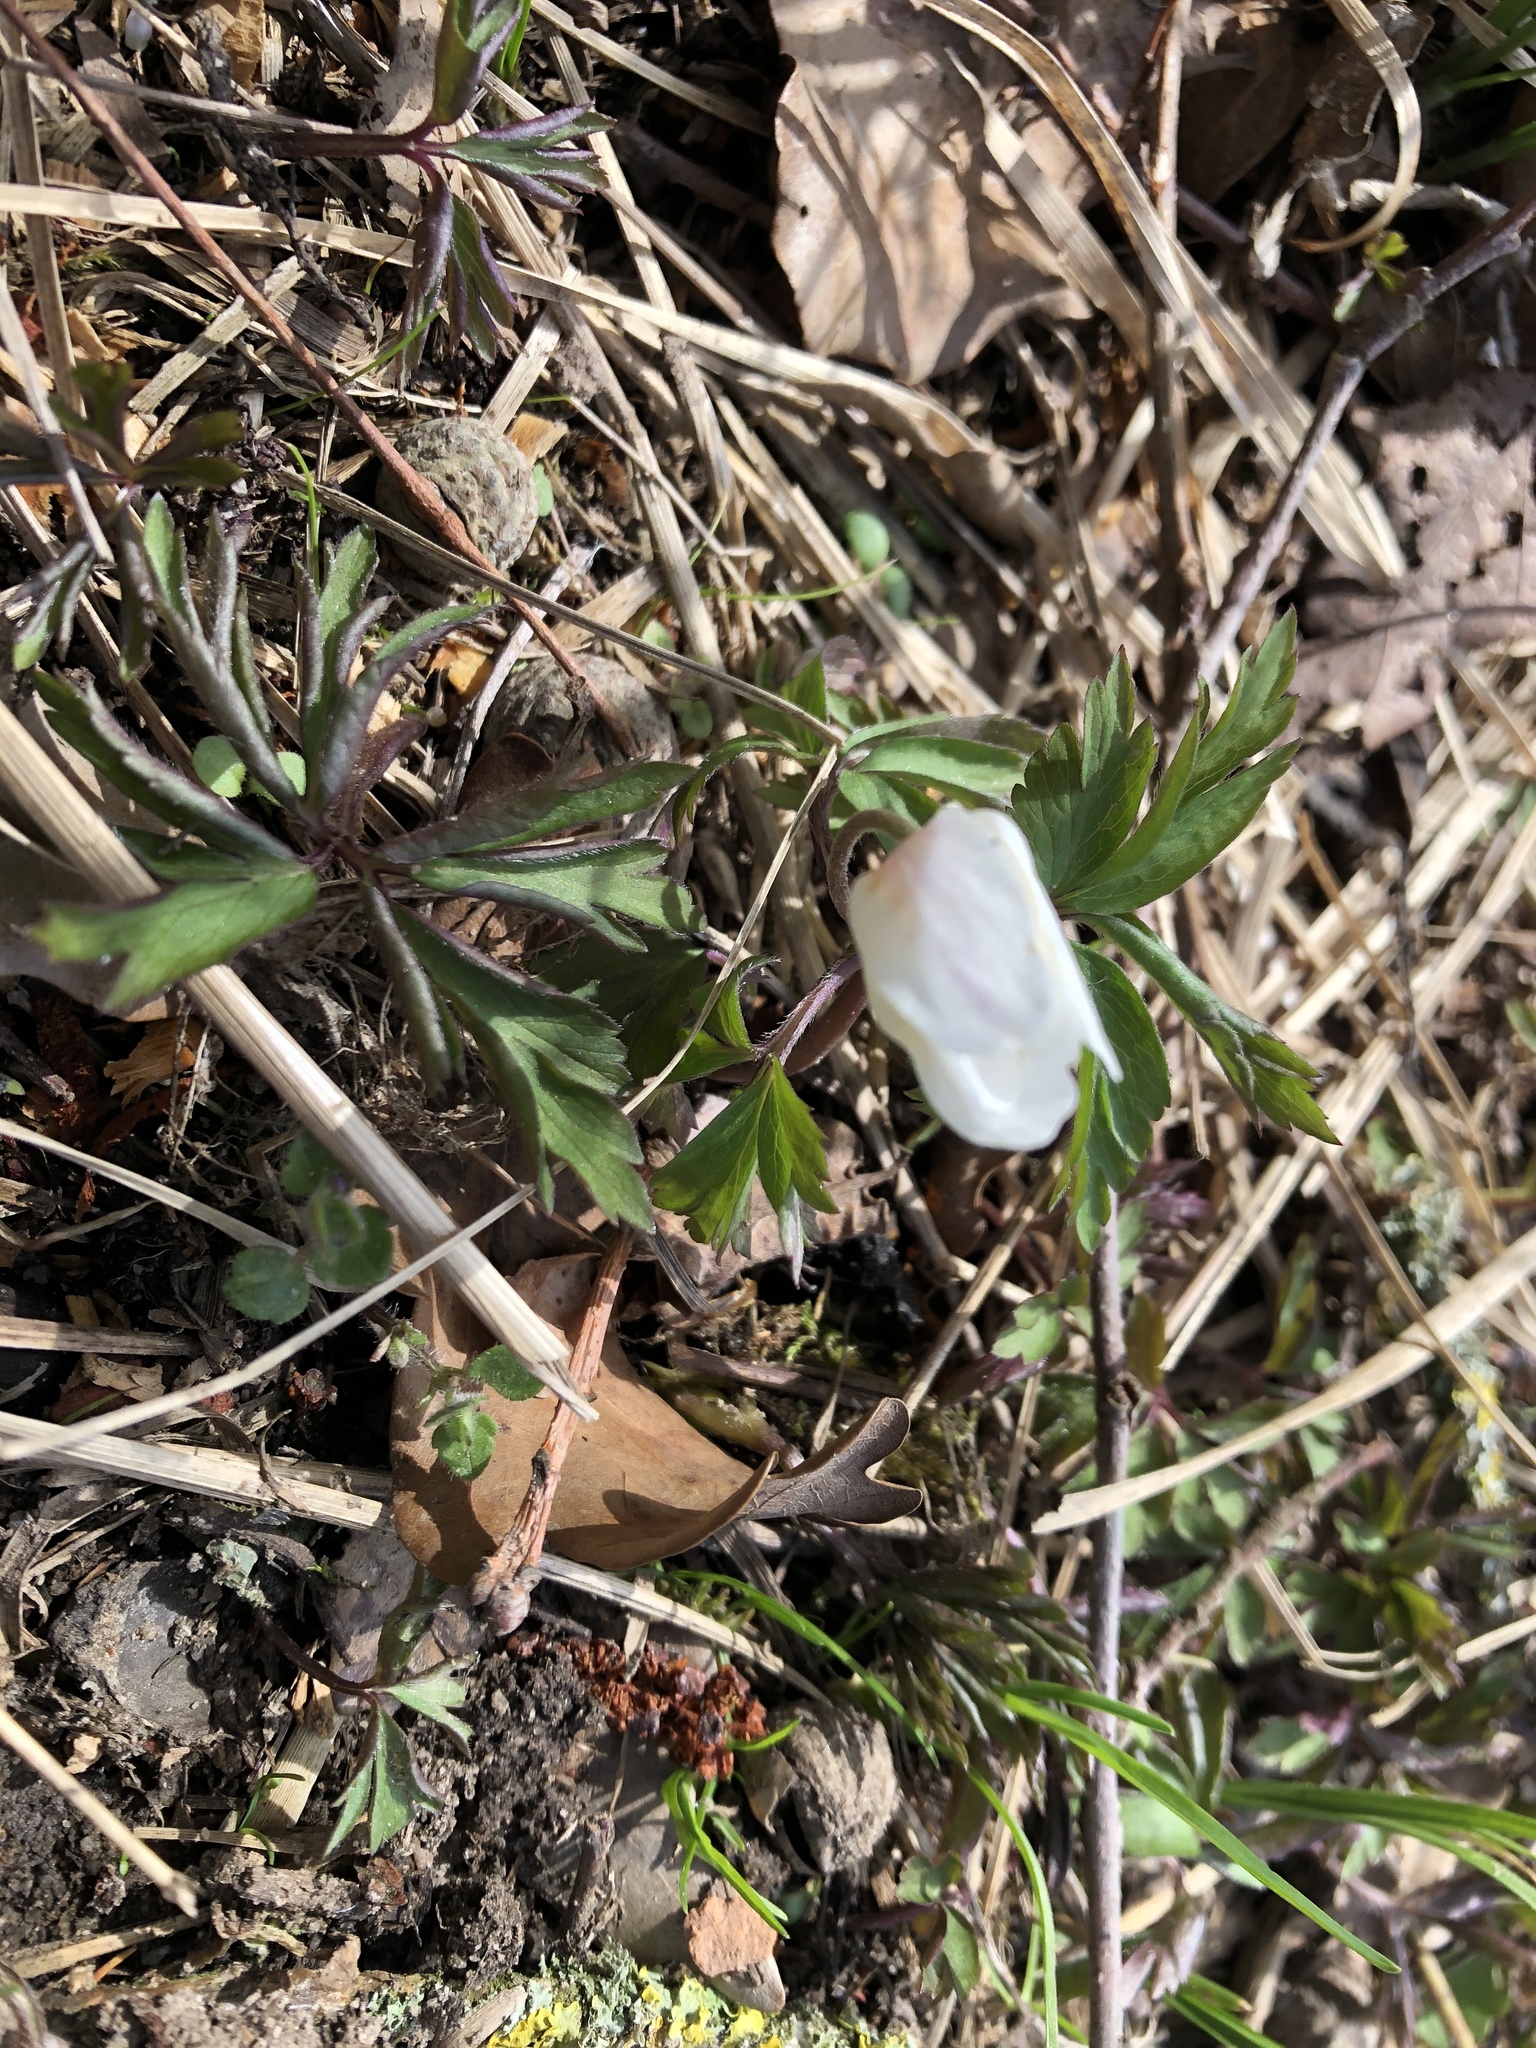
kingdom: Plantae
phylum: Tracheophyta
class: Magnoliopsida
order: Ranunculales
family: Ranunculaceae
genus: Anemone
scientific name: Anemone nemorosa
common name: Wood anemone
